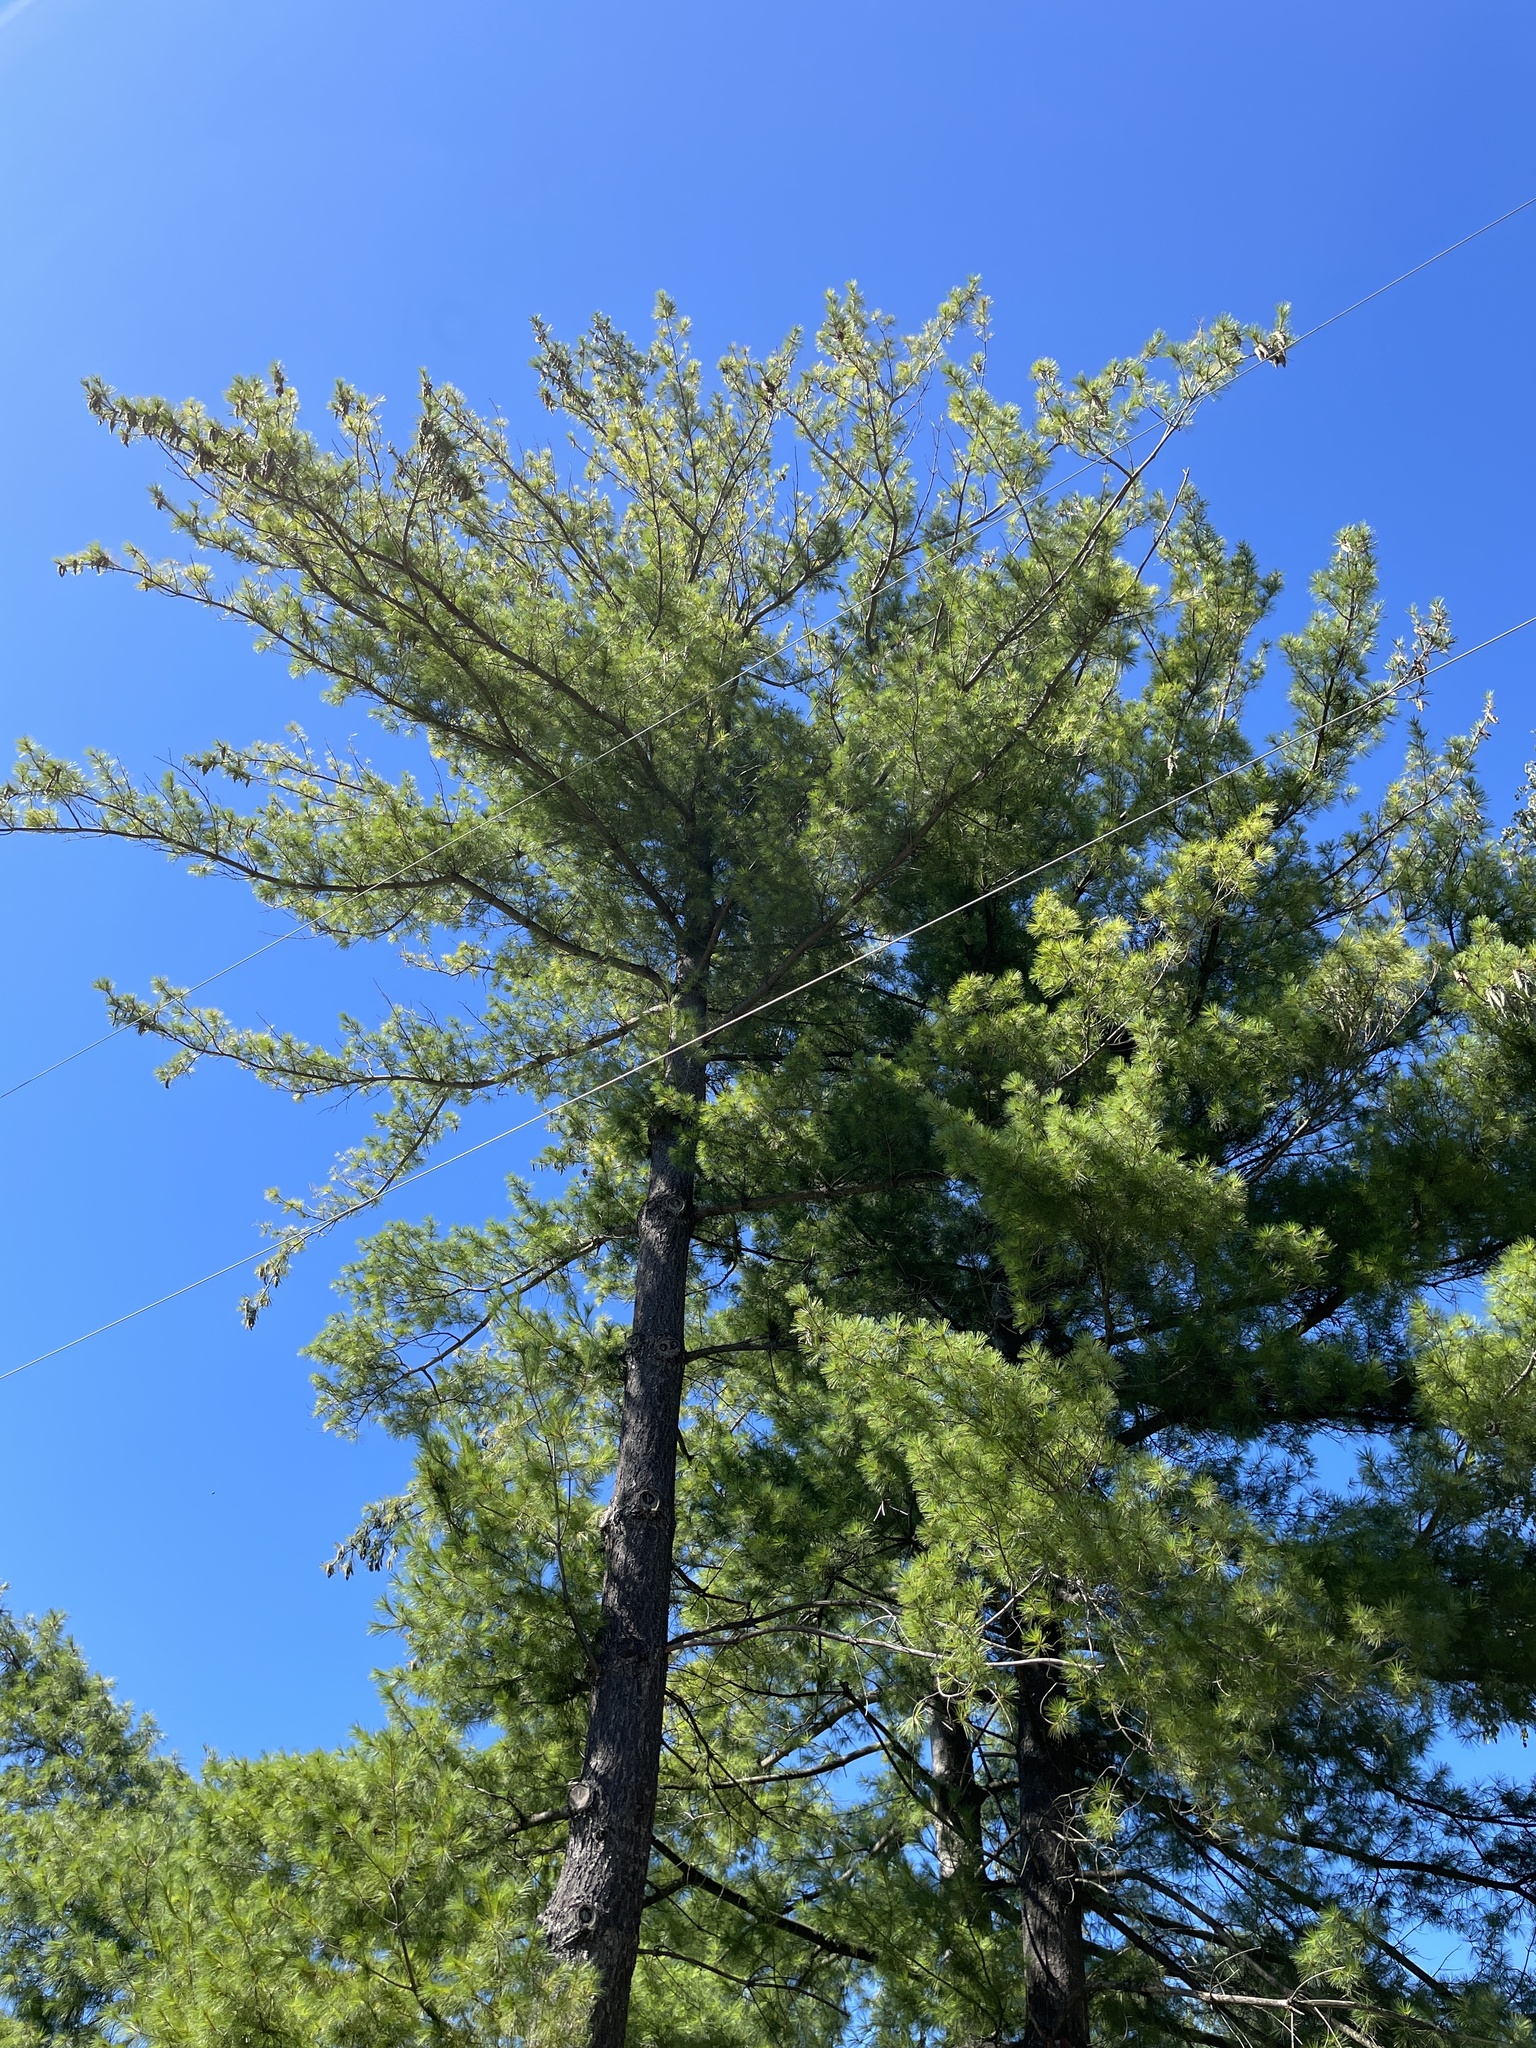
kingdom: Plantae
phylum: Tracheophyta
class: Pinopsida
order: Pinales
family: Pinaceae
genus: Pinus
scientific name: Pinus strobus
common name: Weymouth pine
